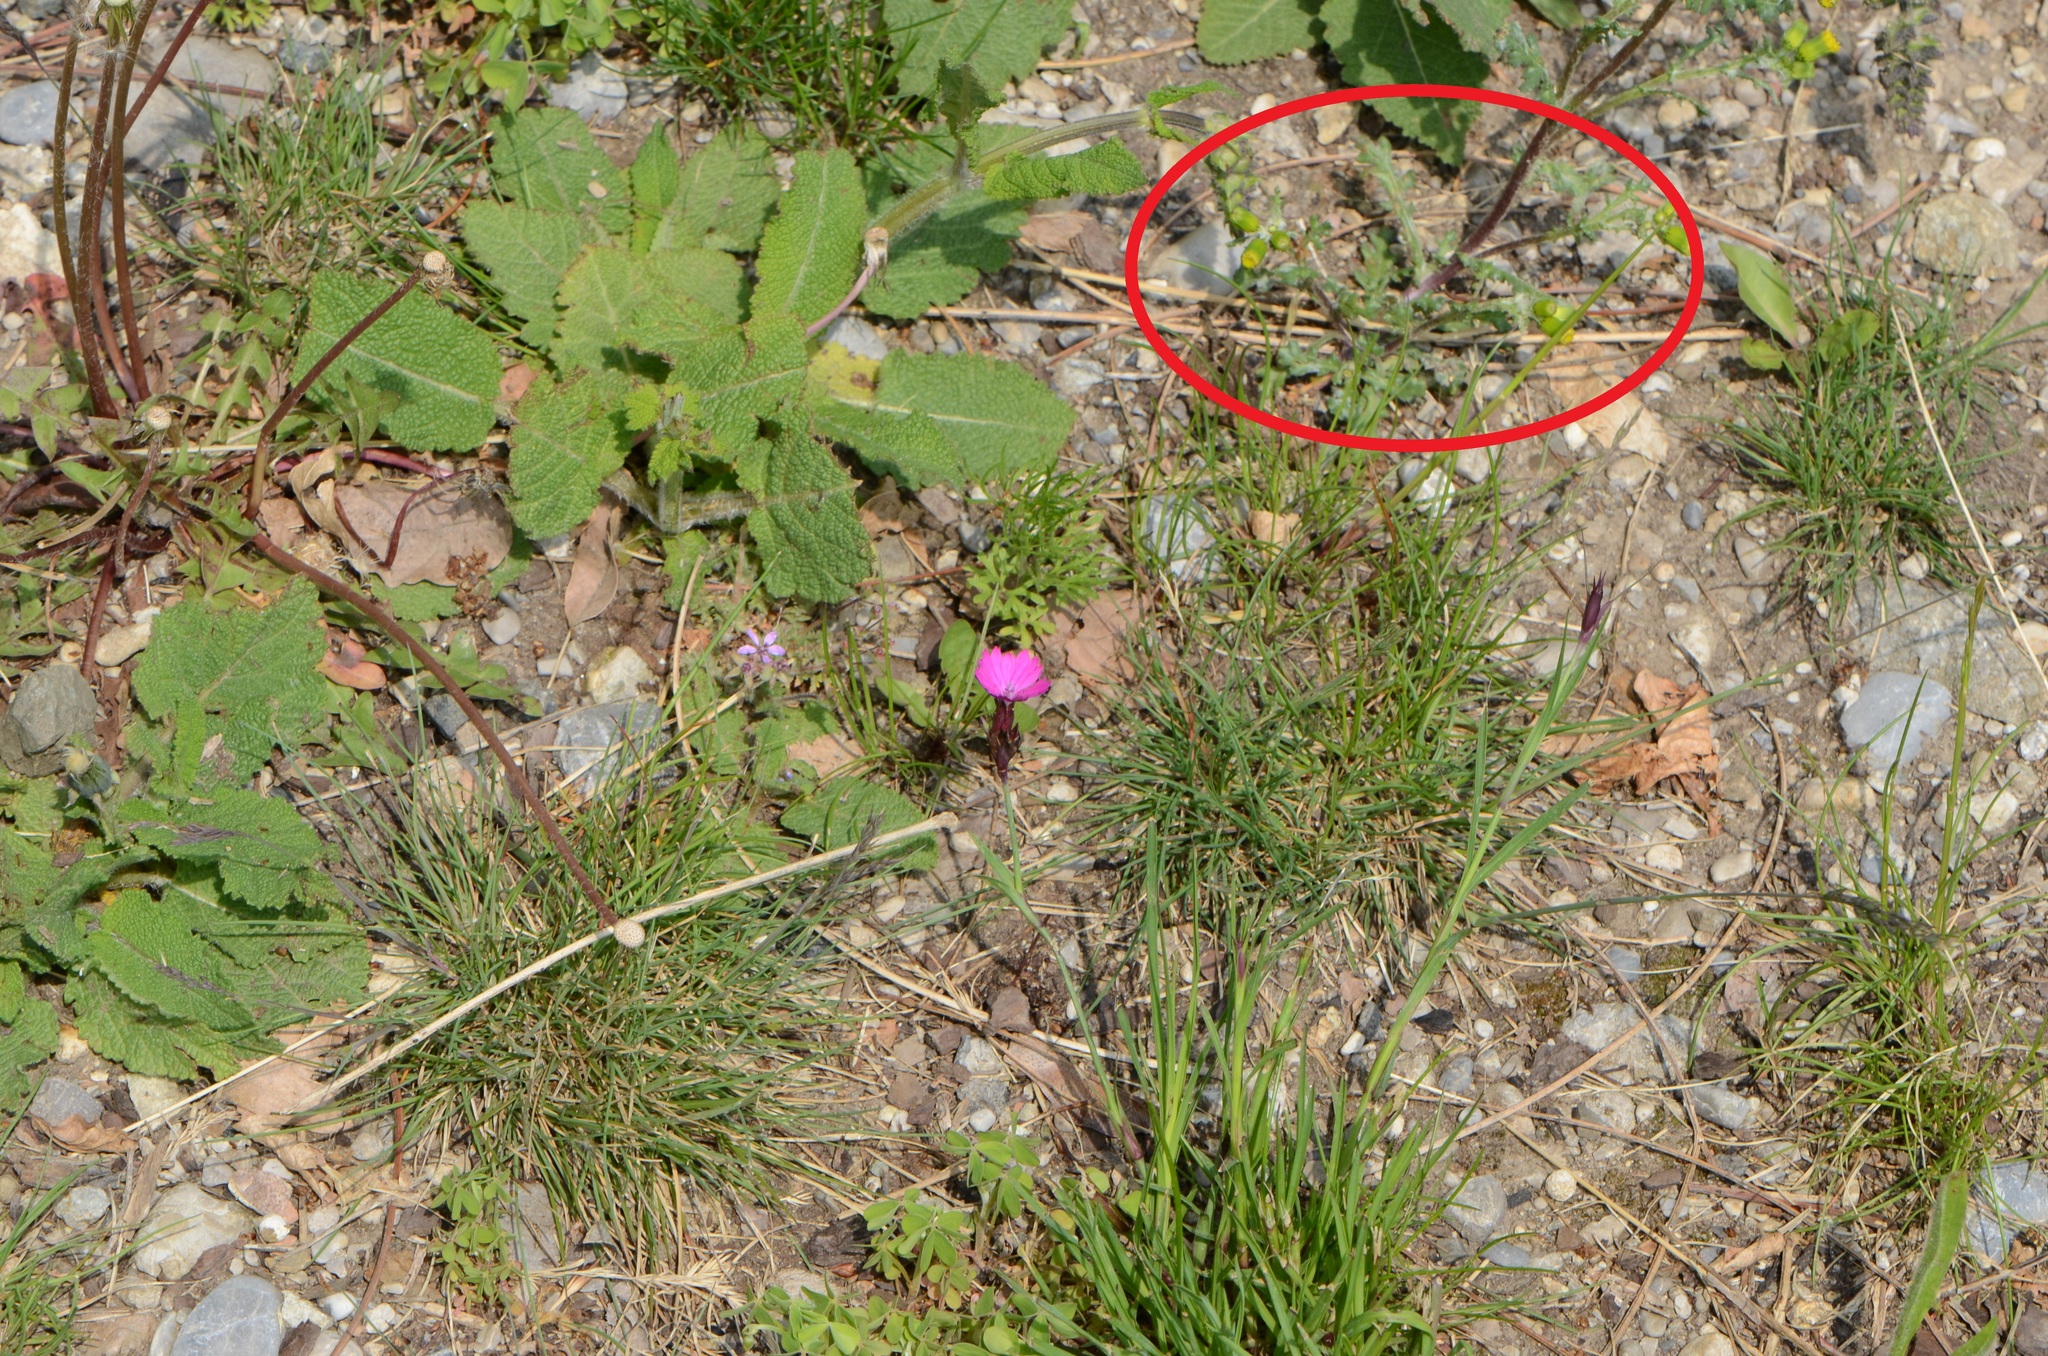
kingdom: Plantae
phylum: Tracheophyta
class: Magnoliopsida
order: Asterales
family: Asteraceae
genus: Senecio
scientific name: Senecio vulgaris
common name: Old-man-in-the-spring
